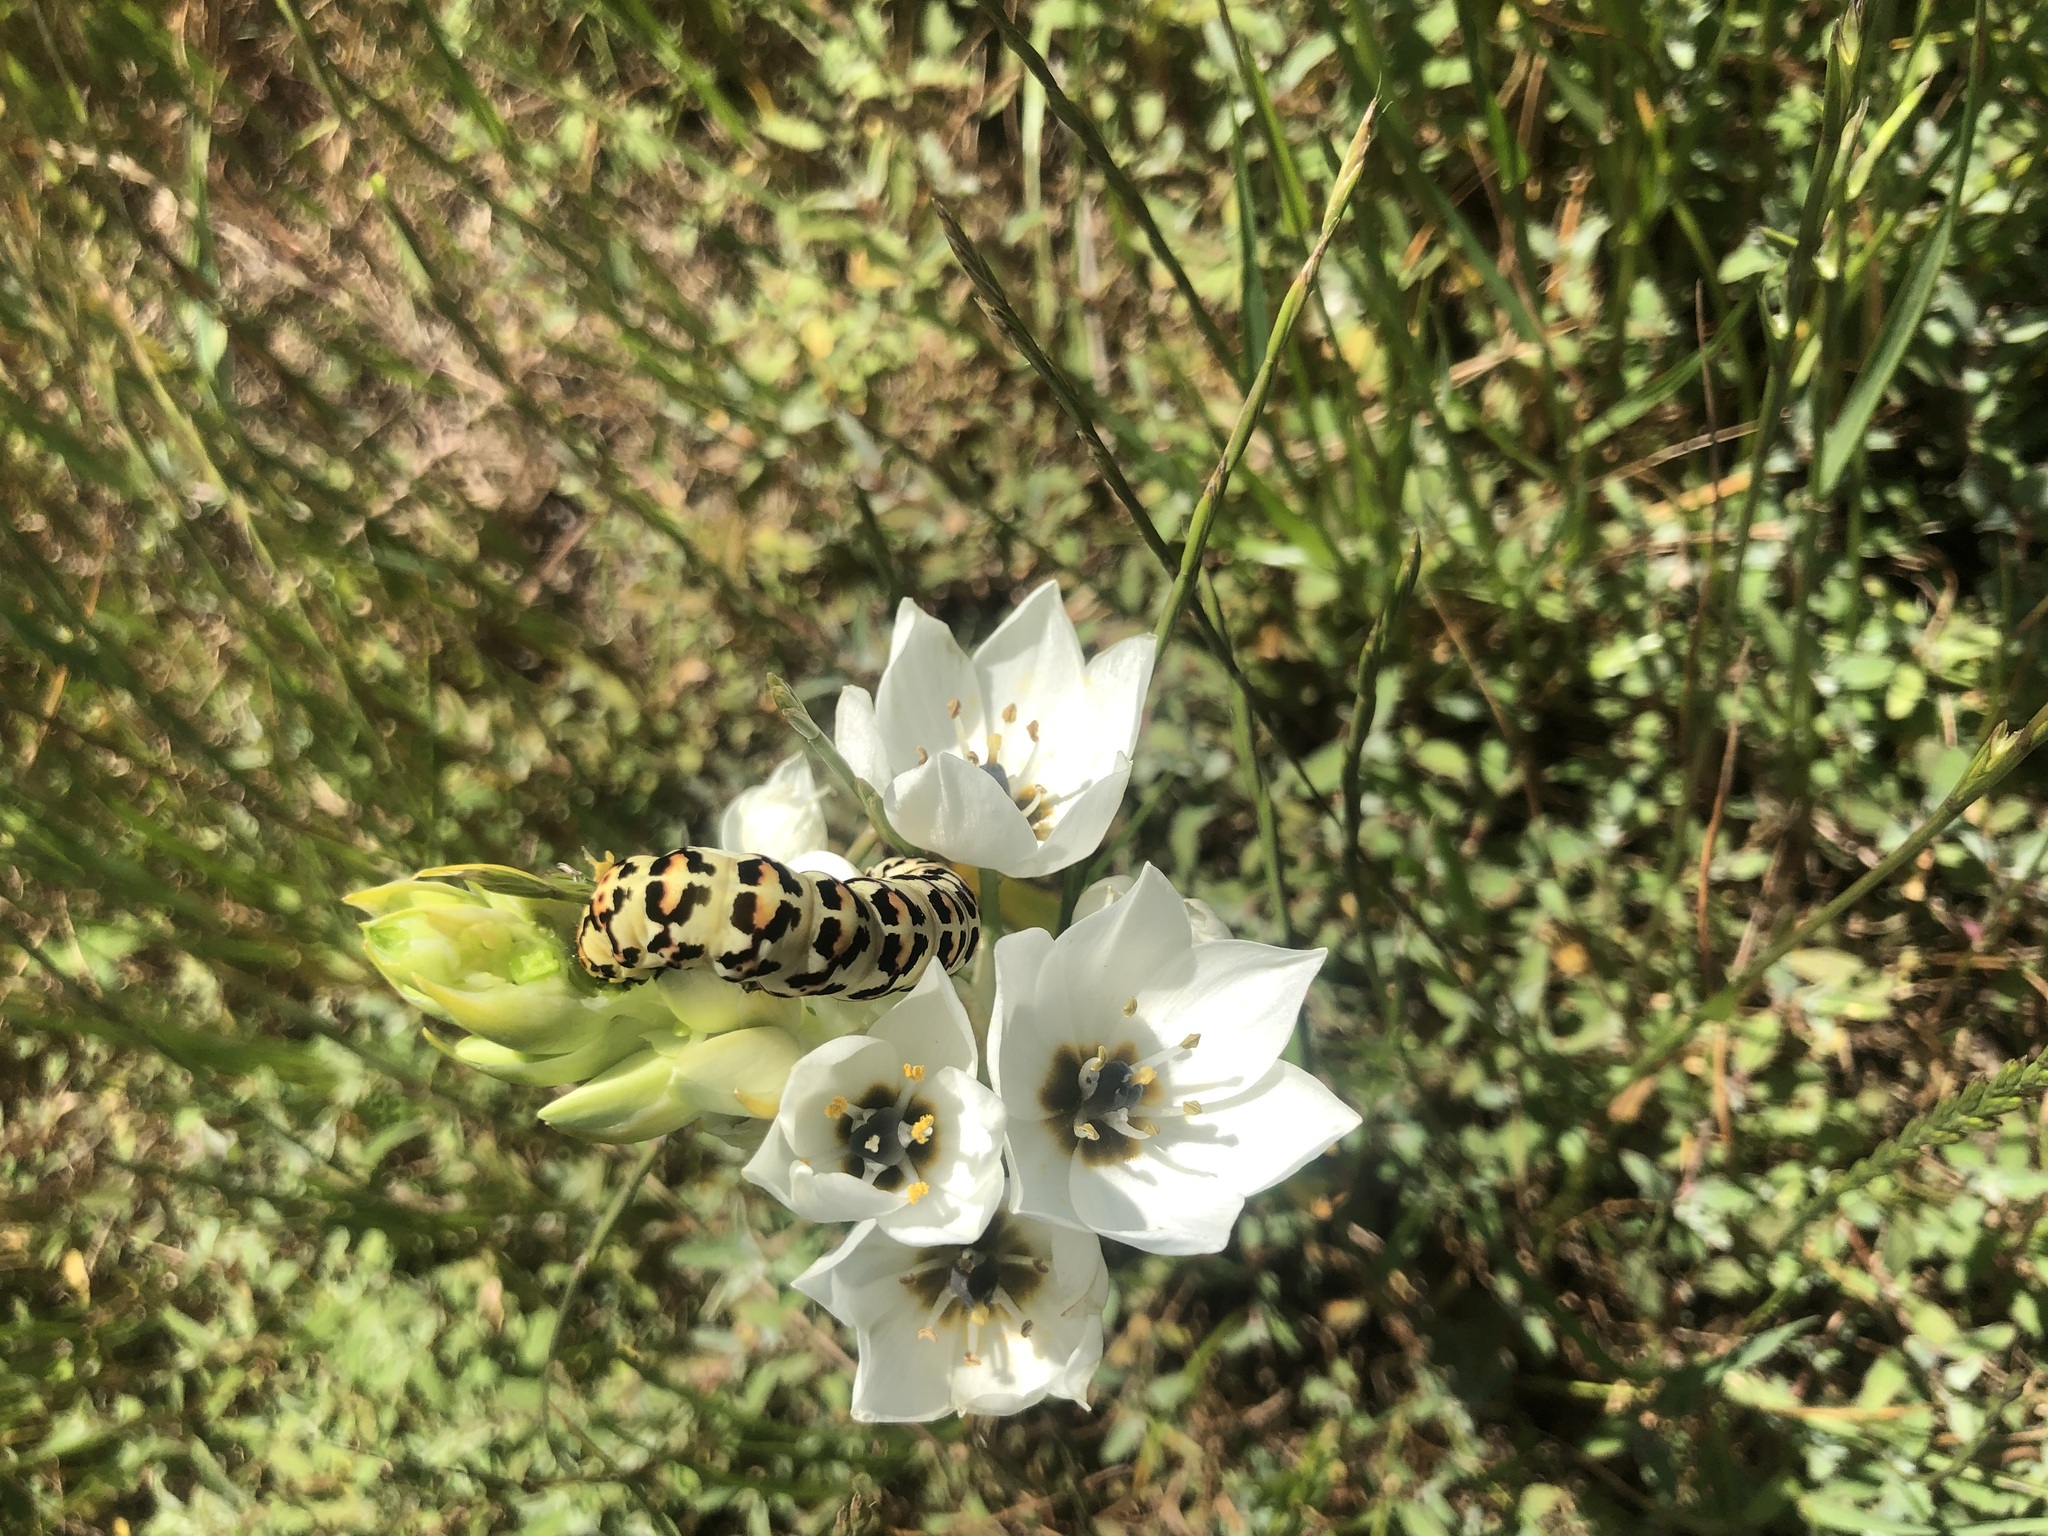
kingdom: Plantae
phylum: Tracheophyta
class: Liliopsida
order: Asparagales
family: Asparagaceae
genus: Ornithogalum
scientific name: Ornithogalum thyrsoides
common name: Chincherinchee
